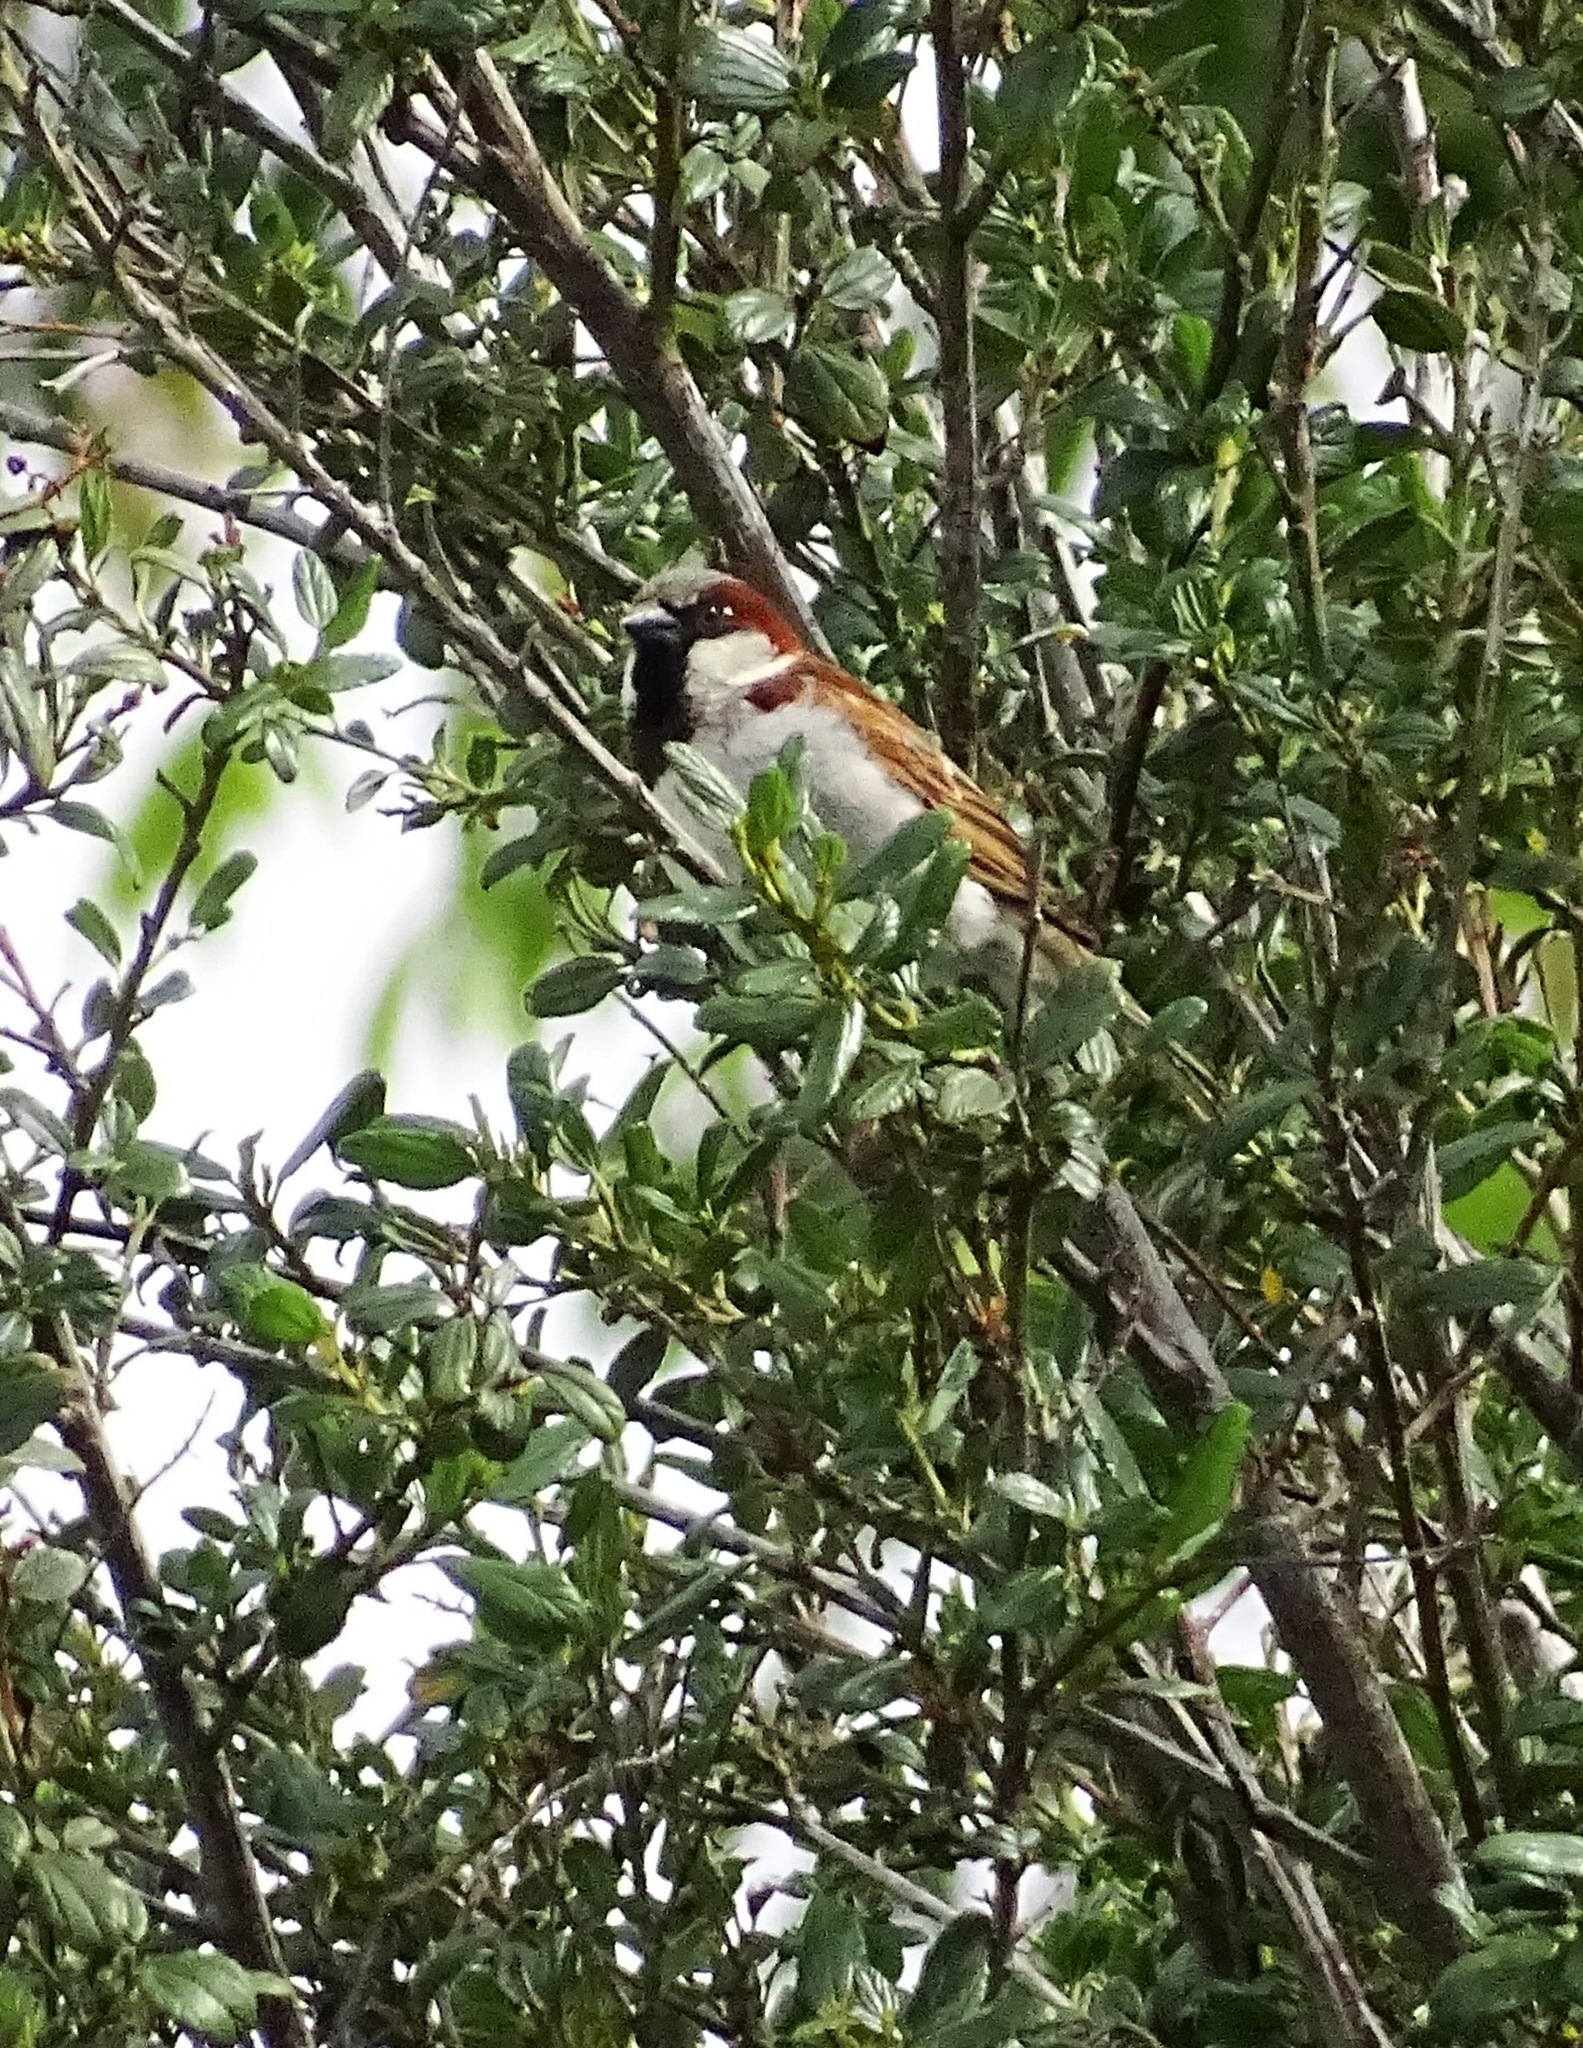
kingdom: Animalia
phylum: Chordata
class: Aves
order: Passeriformes
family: Passeridae
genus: Passer
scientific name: Passer domesticus
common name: House sparrow
